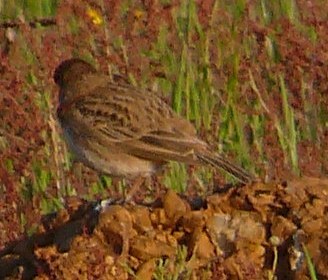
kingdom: Animalia
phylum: Chordata
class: Aves
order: Passeriformes
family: Alaudidae
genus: Calandrella
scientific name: Calandrella cinerea
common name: Red-capped lark
